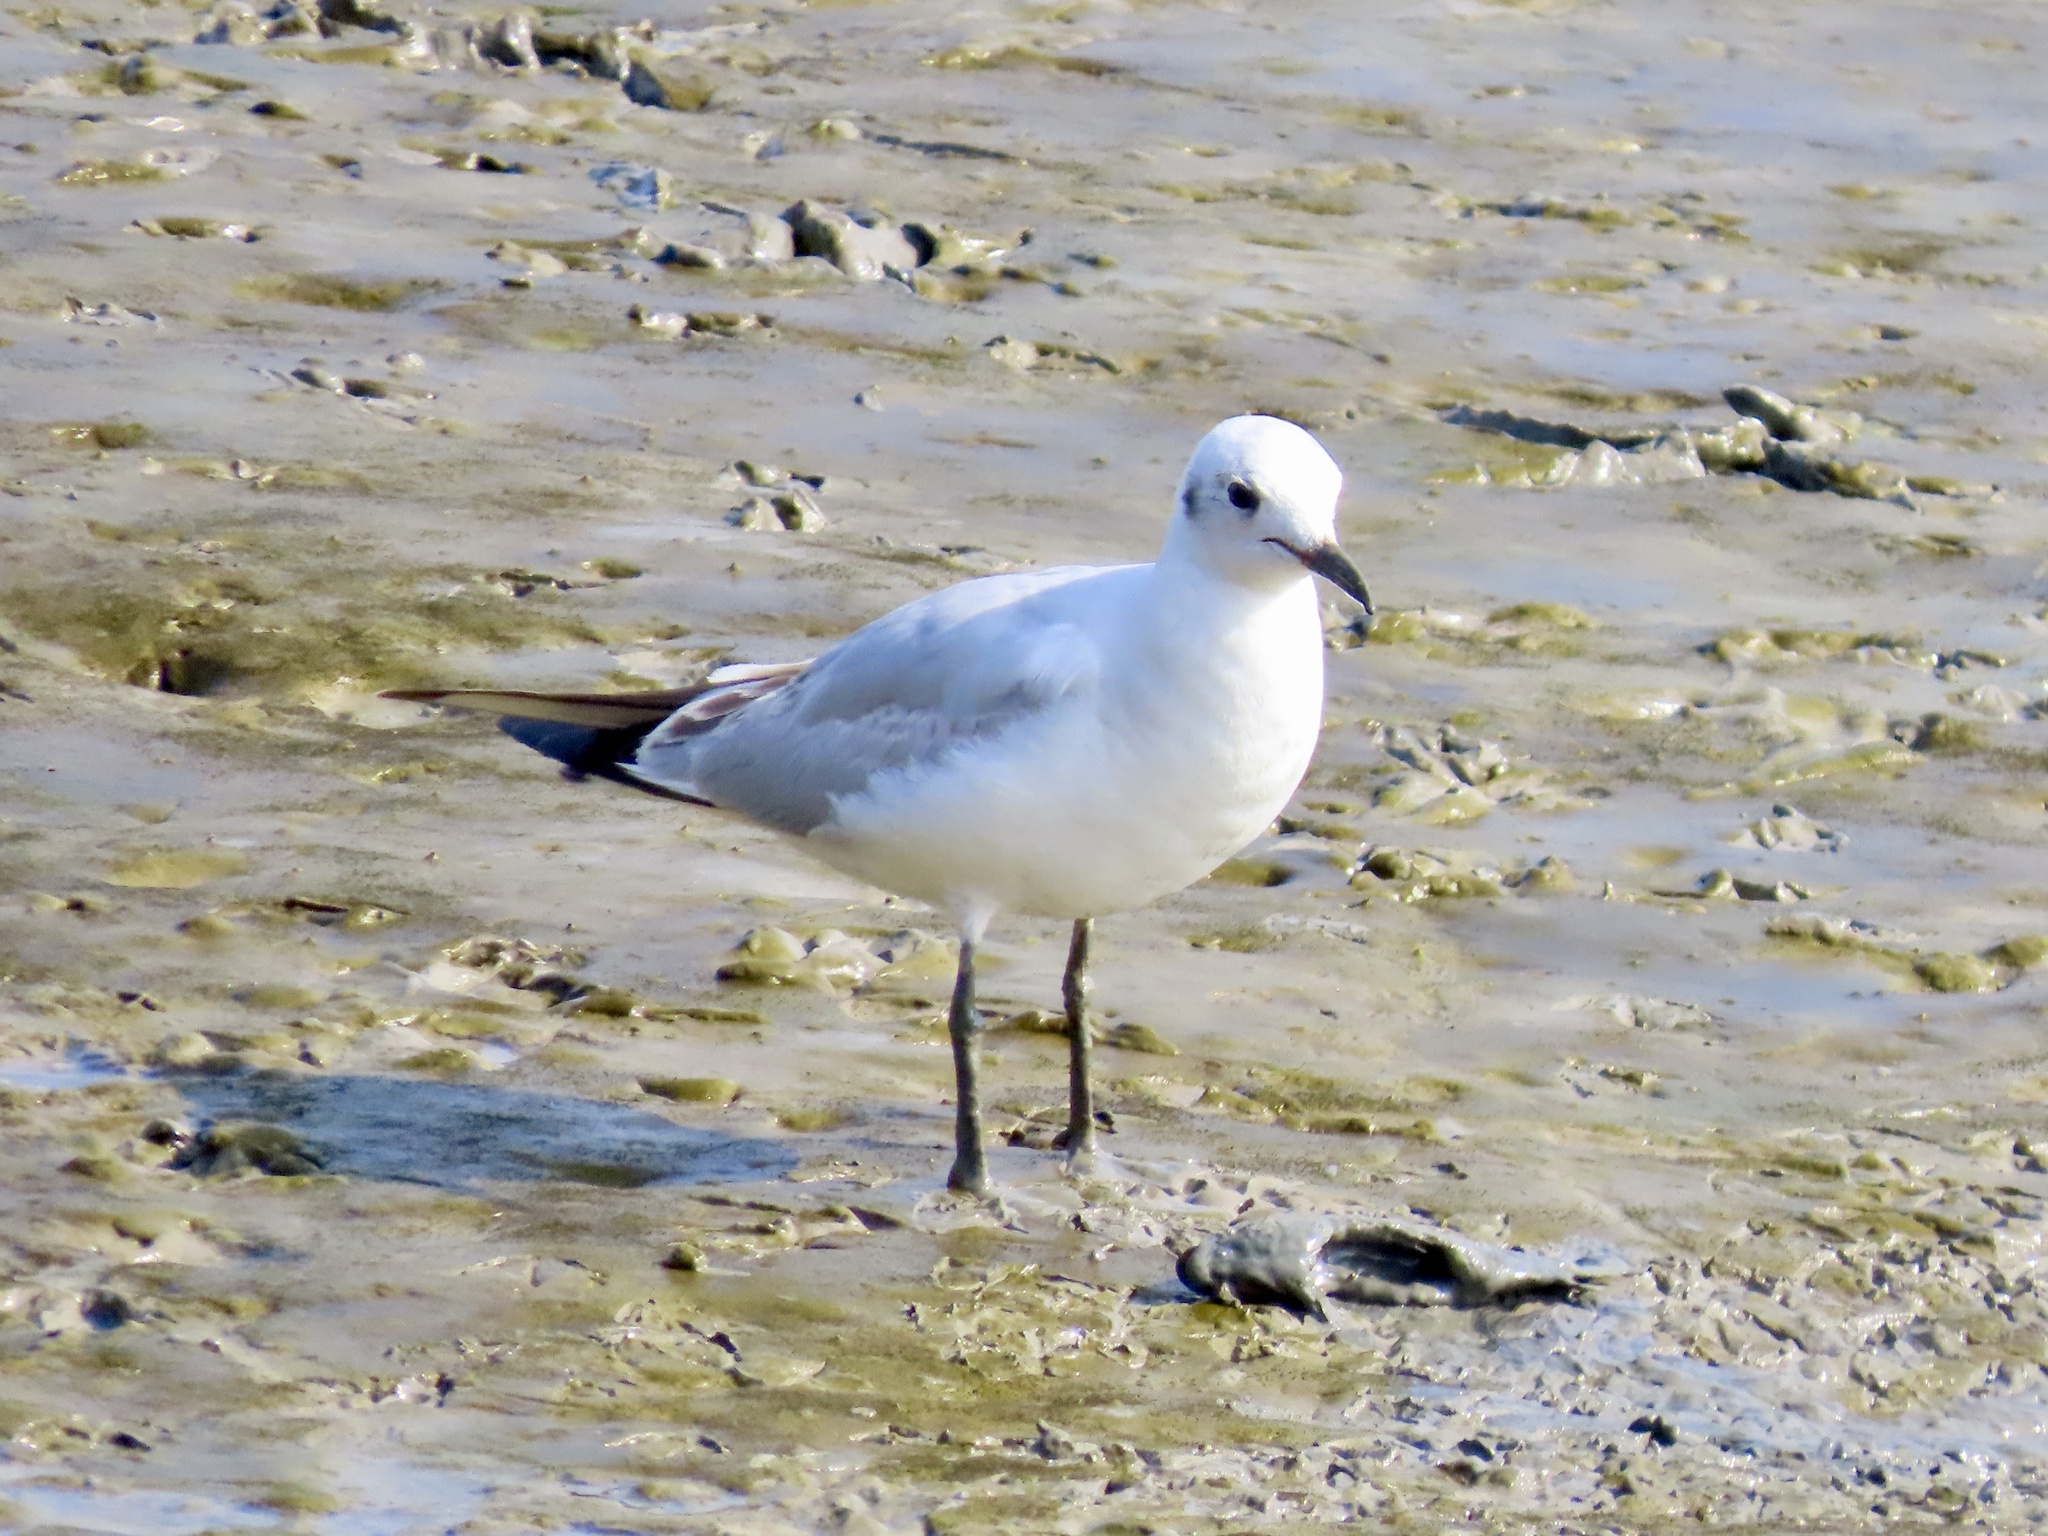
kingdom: Animalia
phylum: Chordata
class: Aves
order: Charadriiformes
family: Laridae
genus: Chroicocephalus
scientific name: Chroicocephalus ridibundus
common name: Black-headed gull
